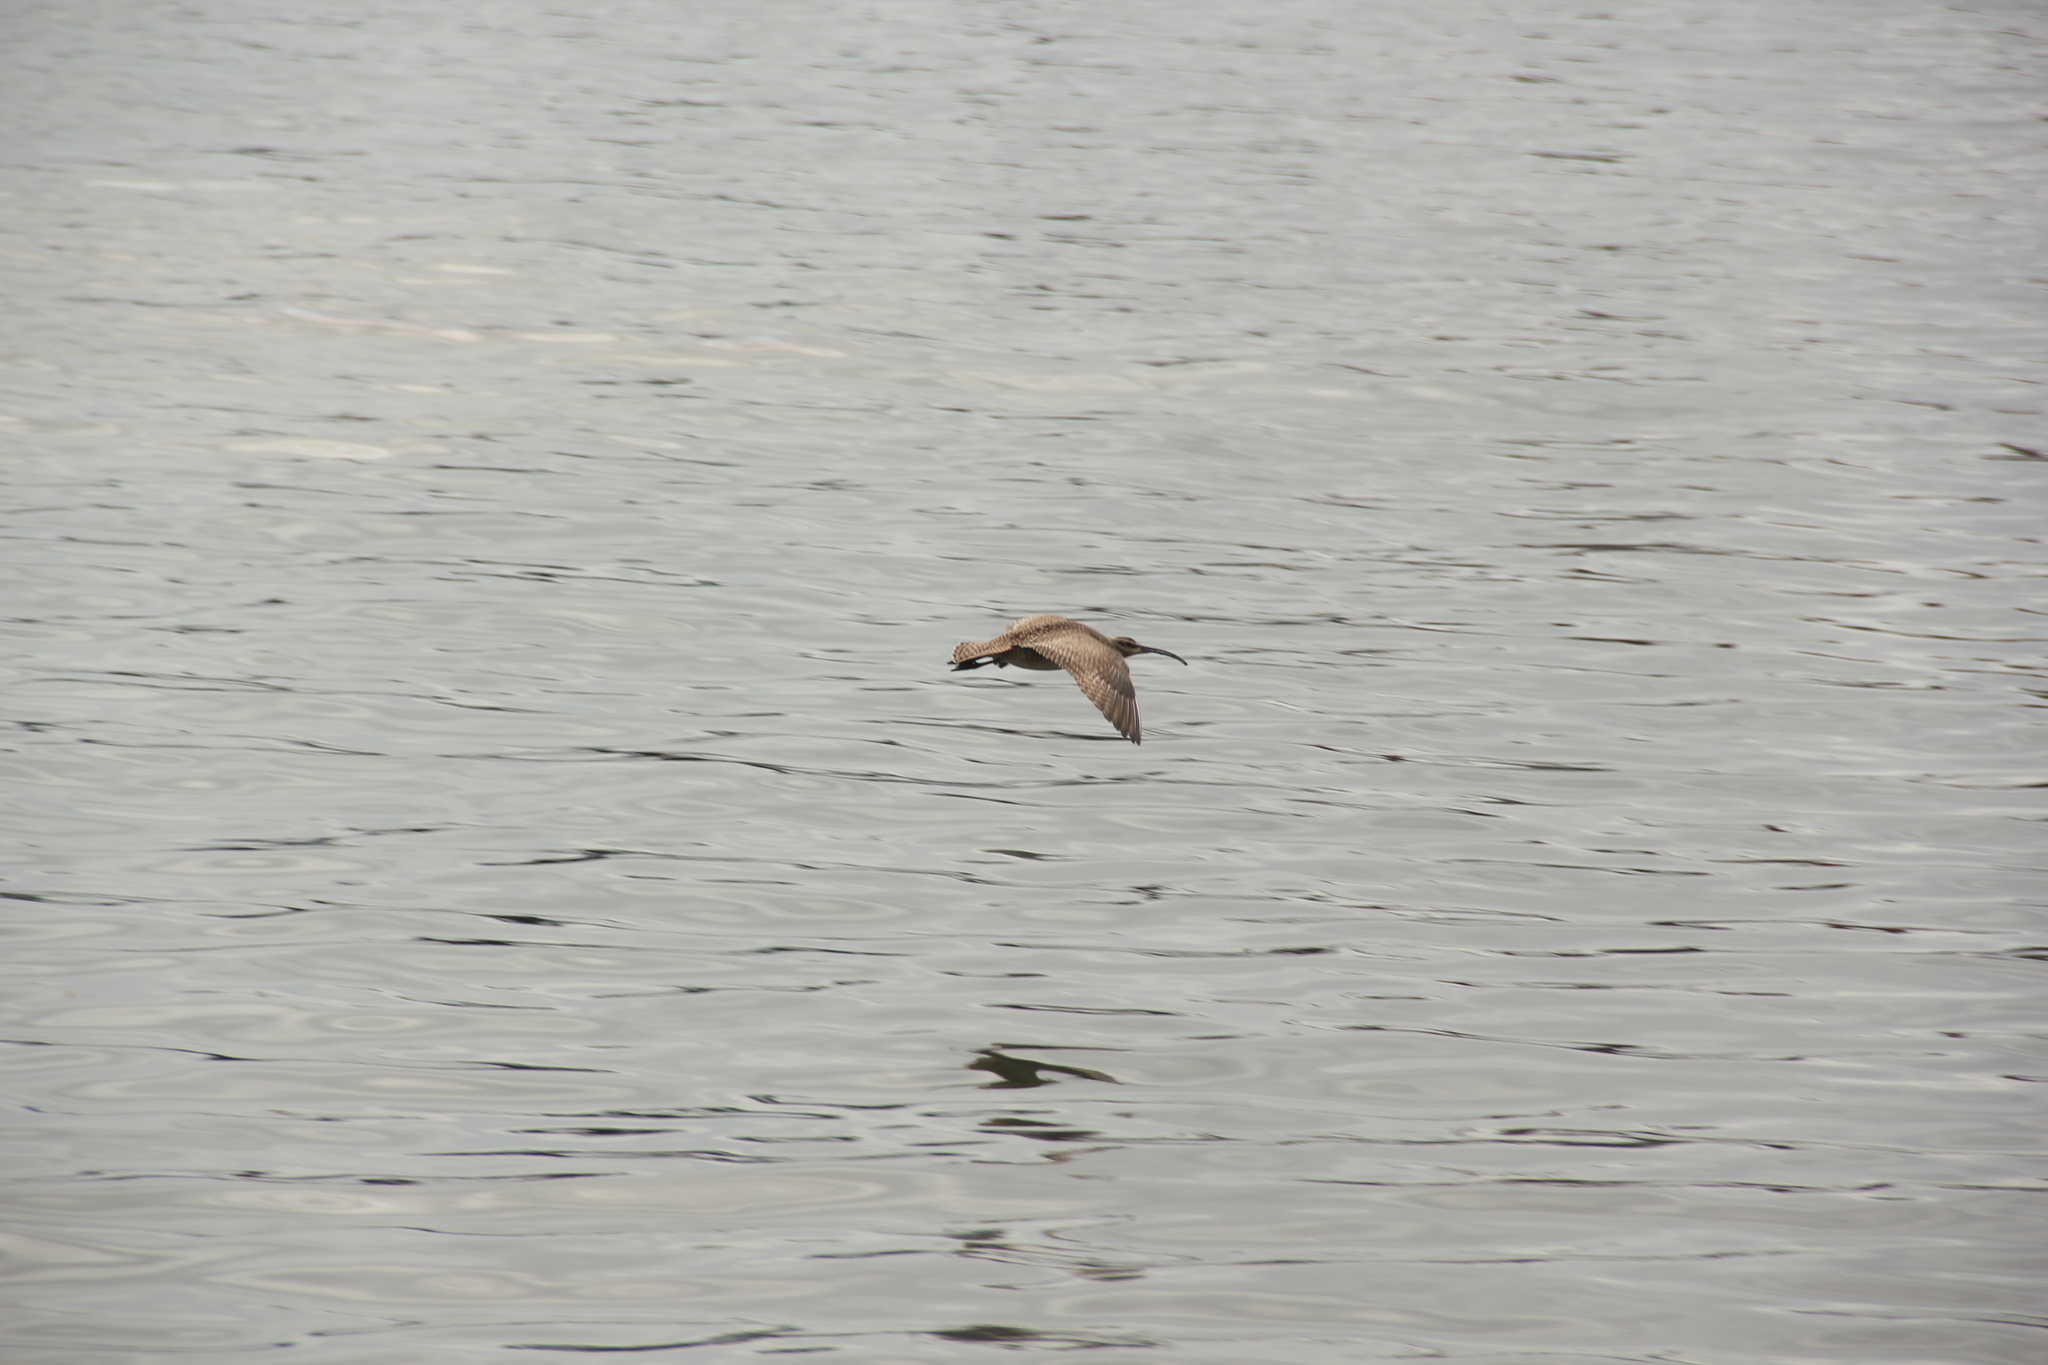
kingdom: Animalia
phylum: Chordata
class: Aves
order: Charadriiformes
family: Scolopacidae
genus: Numenius
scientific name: Numenius phaeopus
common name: Whimbrel
